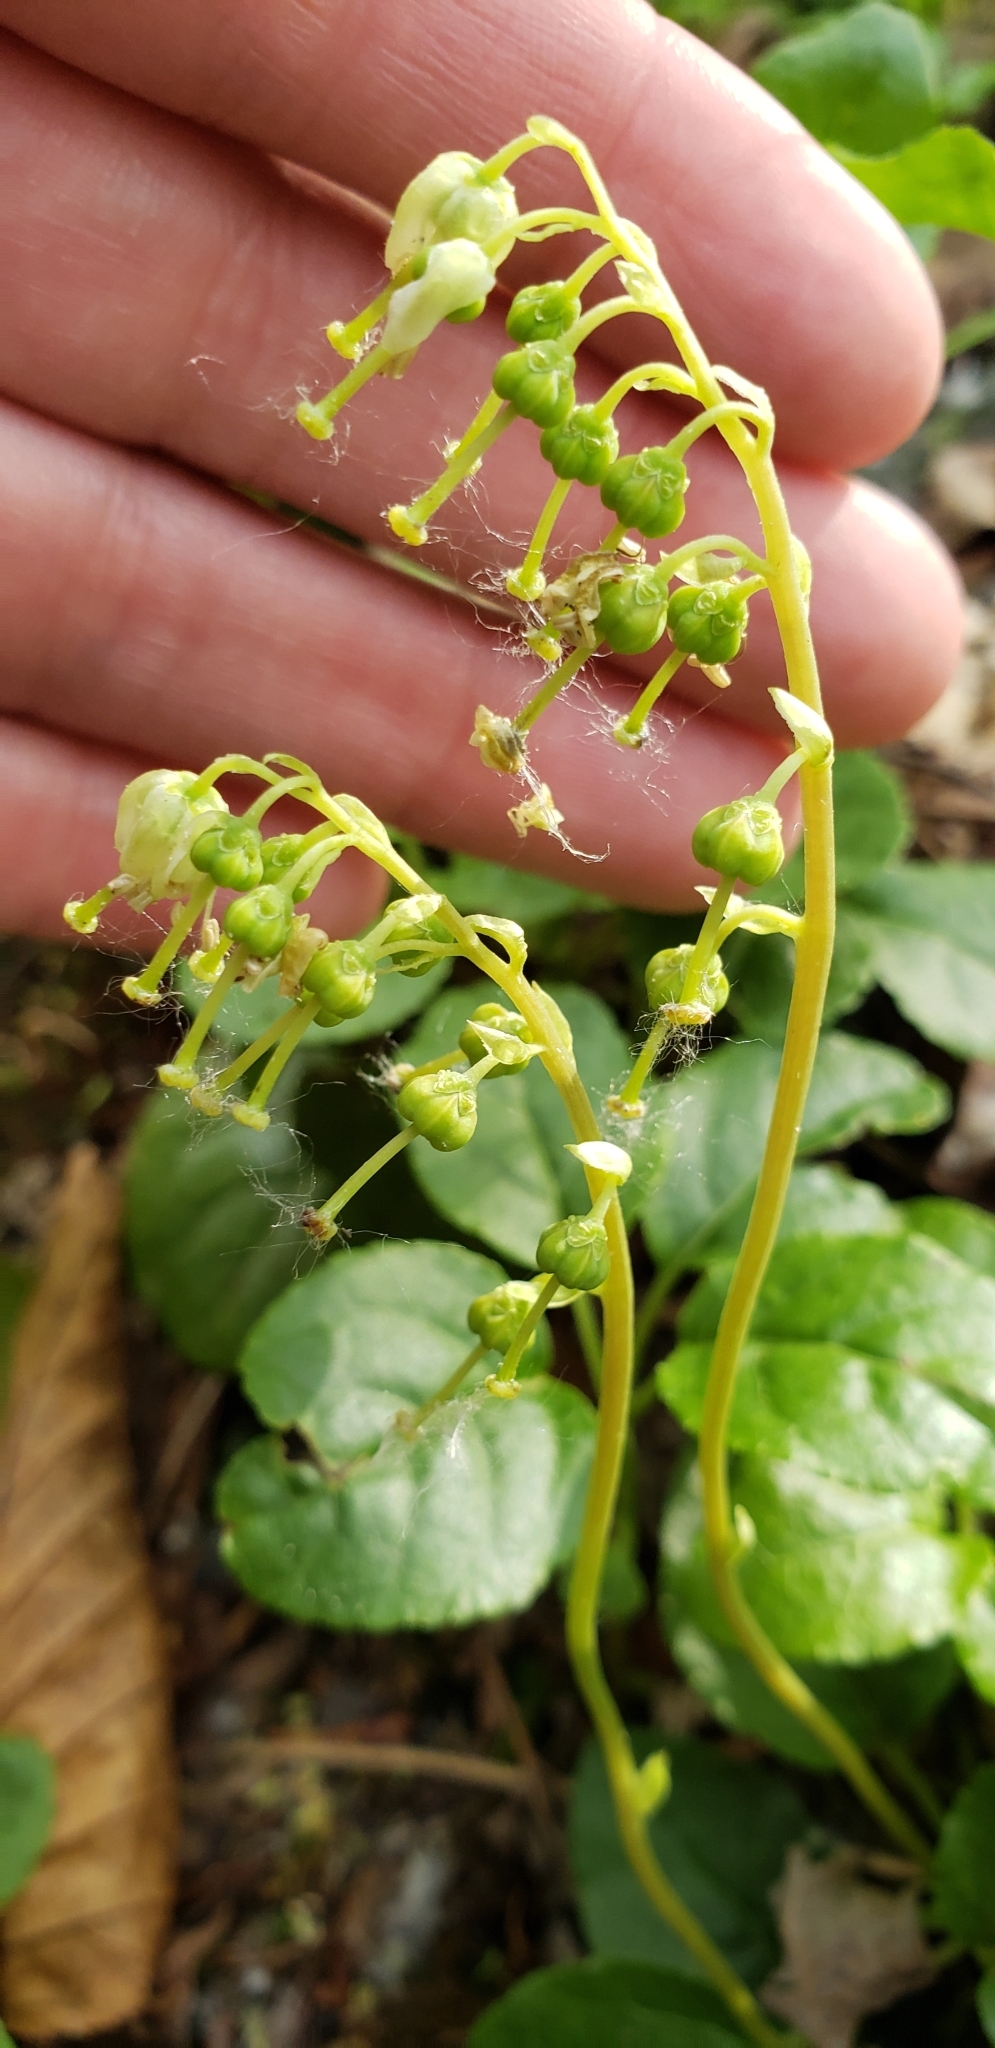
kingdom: Plantae
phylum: Tracheophyta
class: Magnoliopsida
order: Ericales
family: Ericaceae
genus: Orthilia
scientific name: Orthilia secunda
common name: One-sided orthilia
